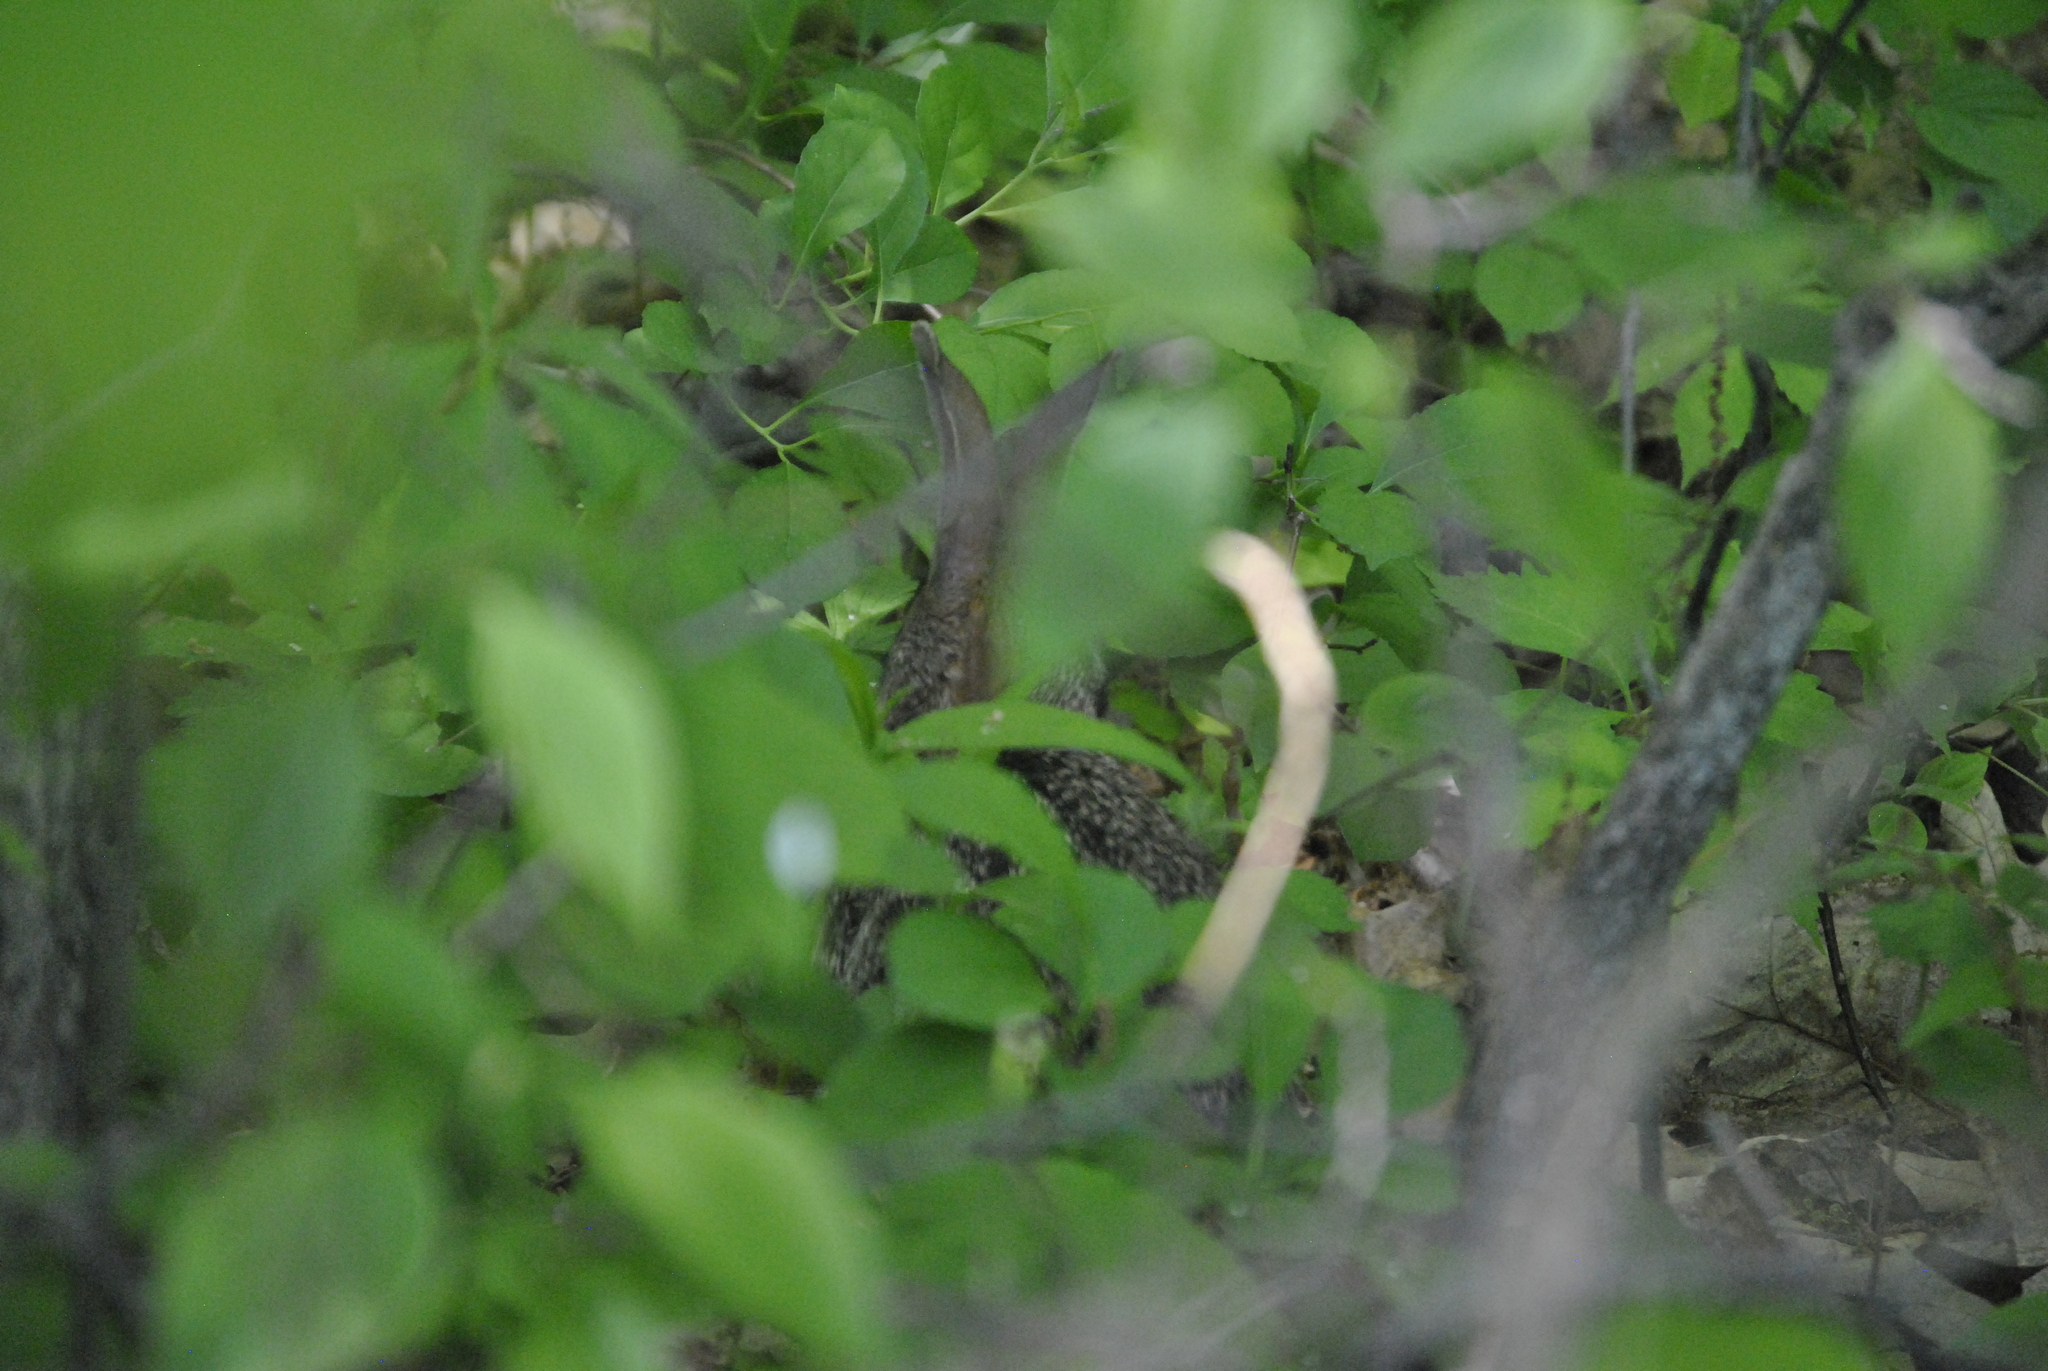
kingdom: Animalia
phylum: Chordata
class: Mammalia
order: Lagomorpha
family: Leporidae
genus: Sylvilagus
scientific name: Sylvilagus floridanus
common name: Eastern cottontail
